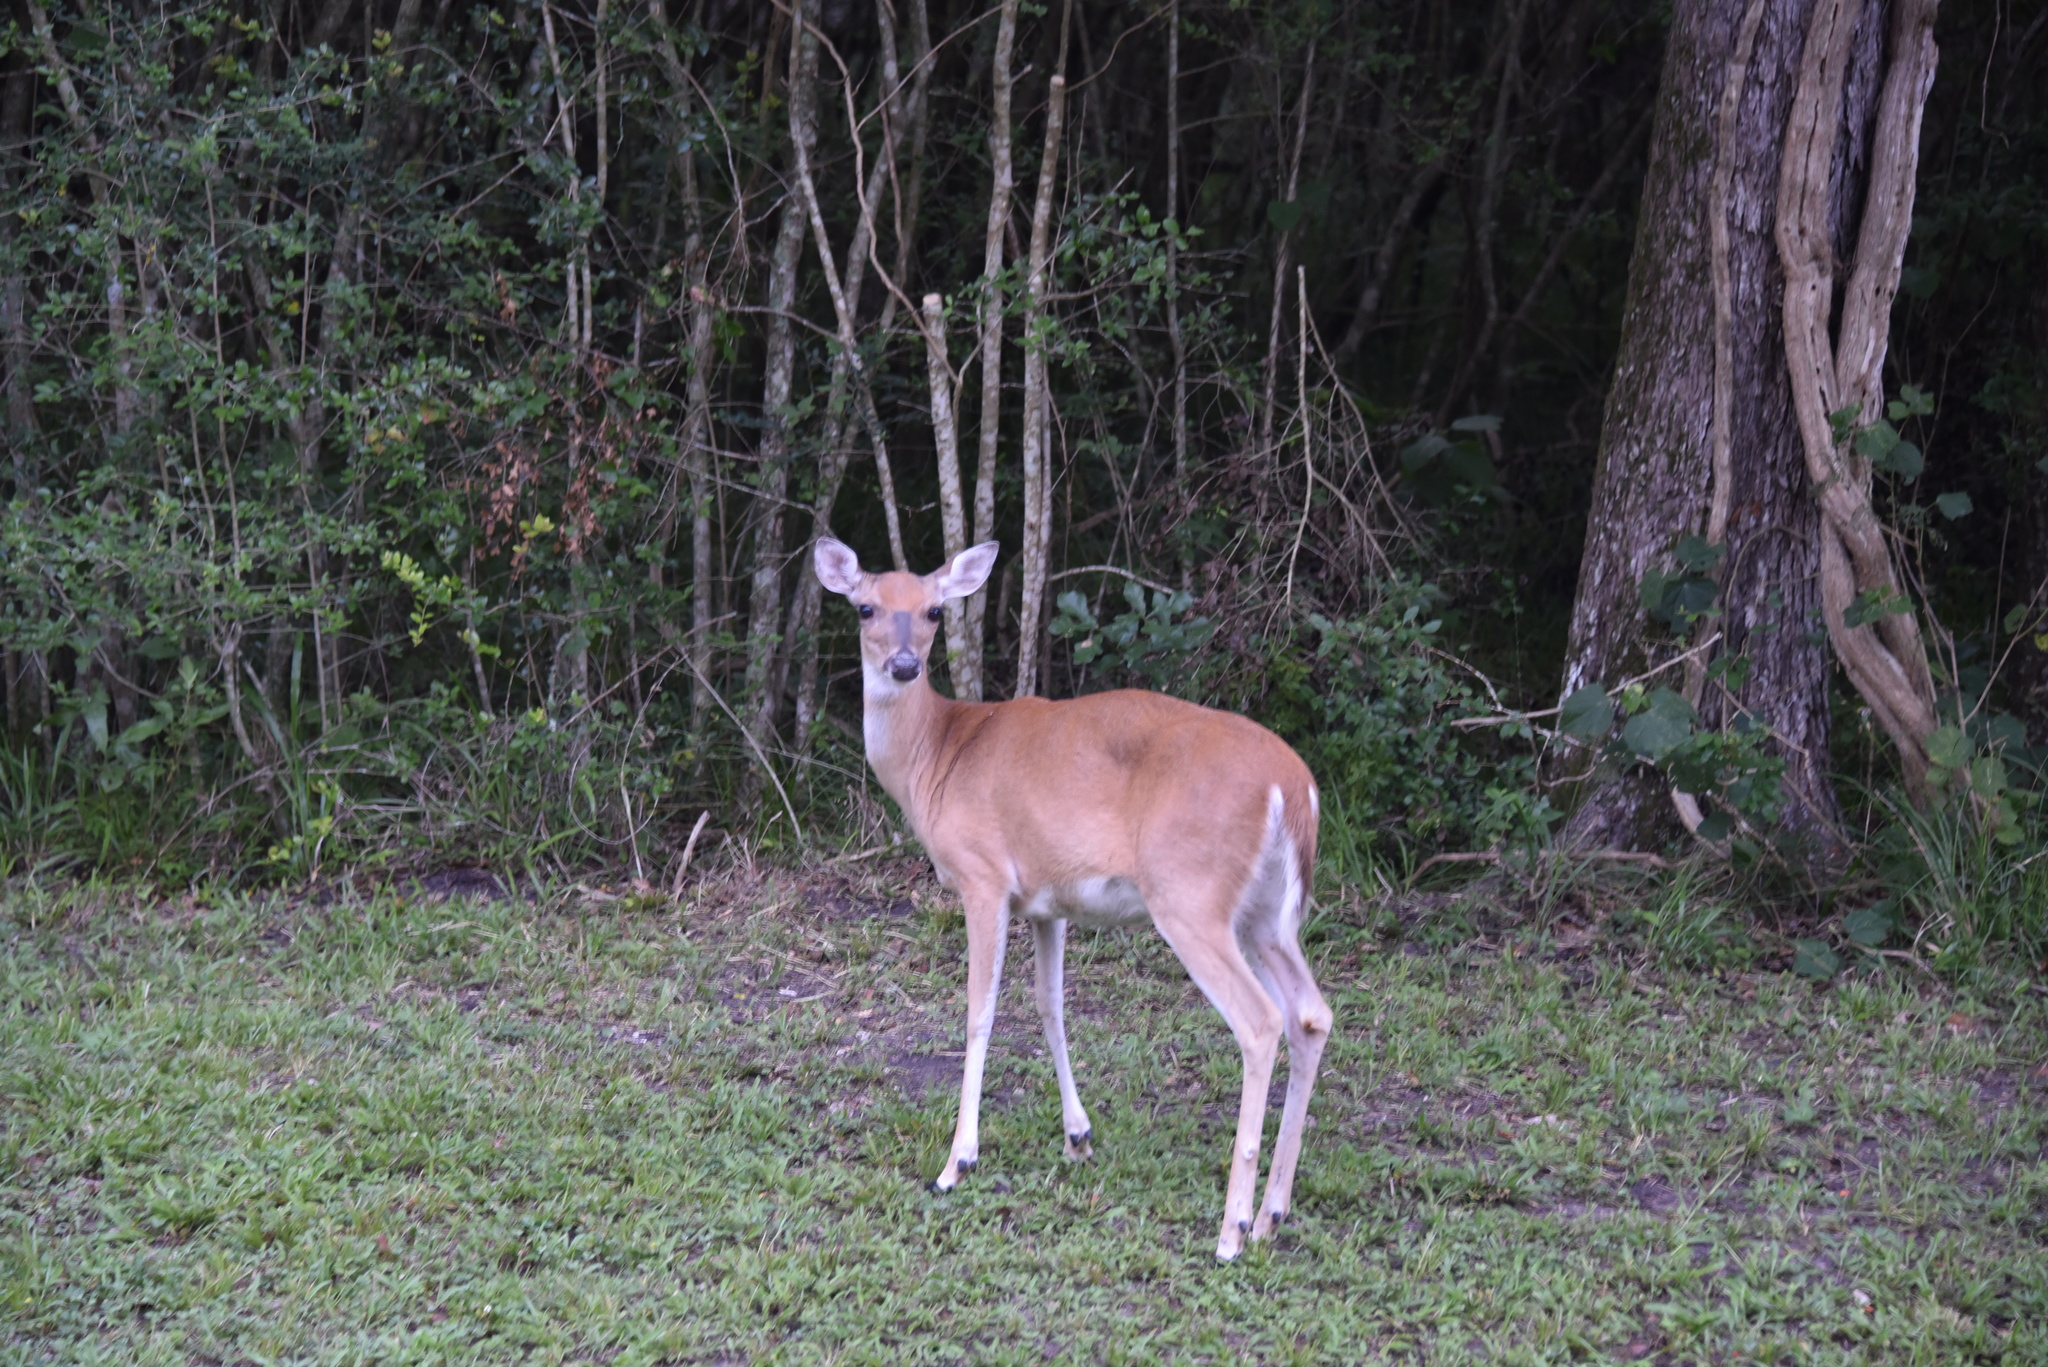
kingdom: Animalia
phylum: Chordata
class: Mammalia
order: Artiodactyla
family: Cervidae
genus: Odocoileus
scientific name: Odocoileus virginianus
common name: White-tailed deer
